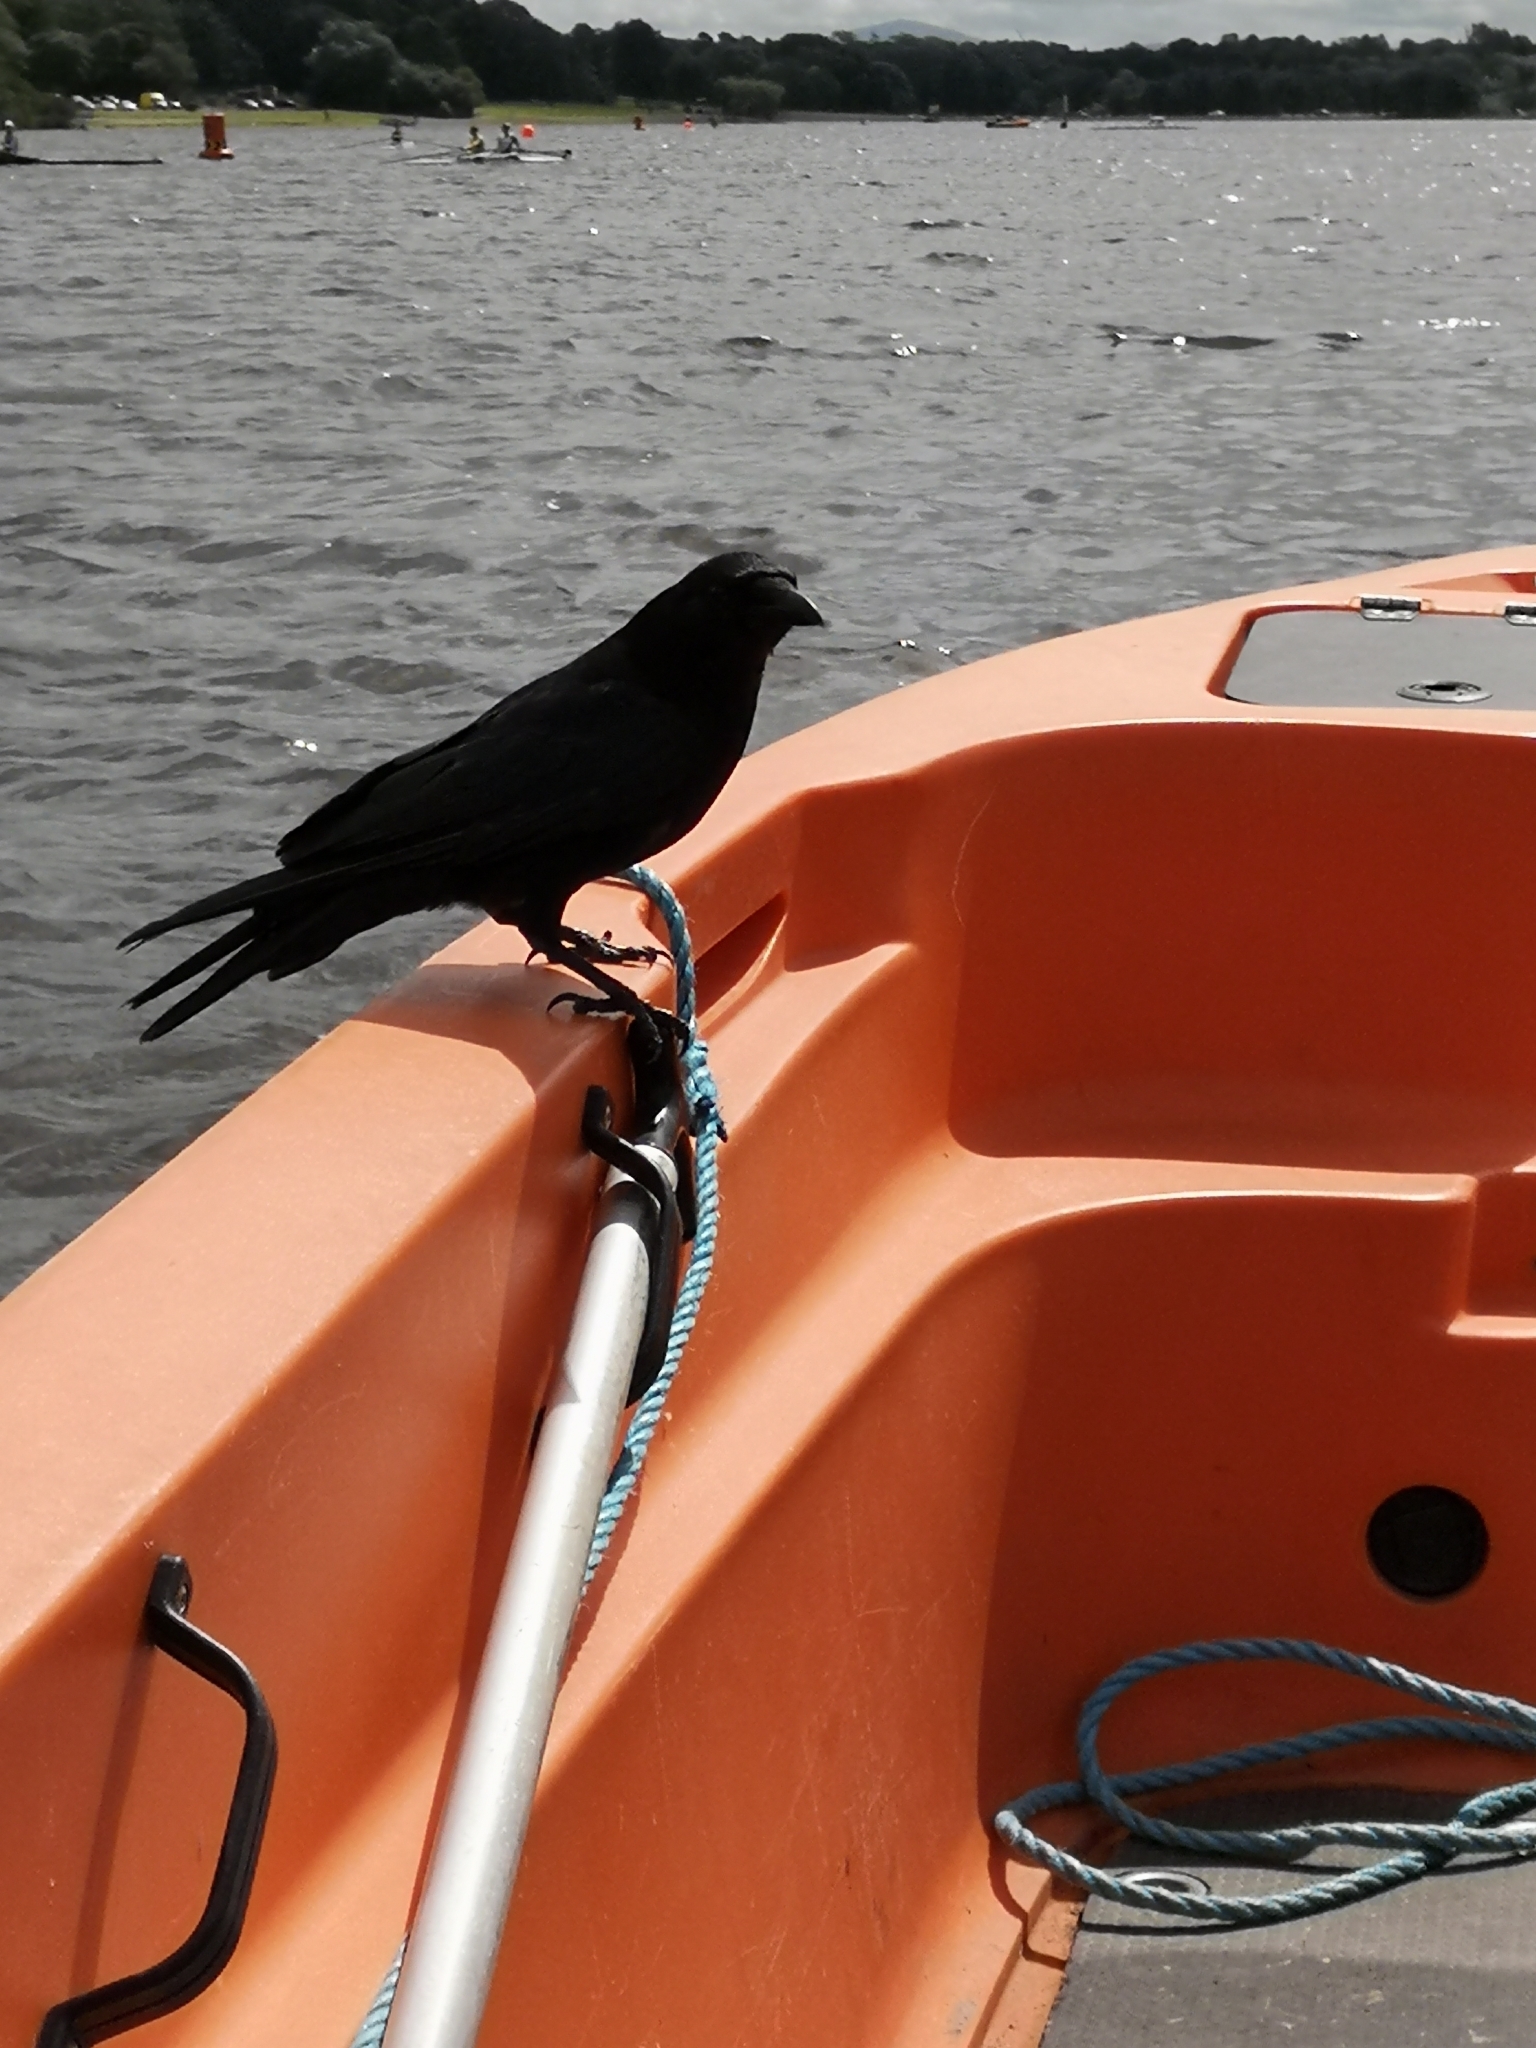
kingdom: Animalia
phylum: Chordata
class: Aves
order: Passeriformes
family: Corvidae
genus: Corvus
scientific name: Corvus corone
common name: Carrion crow
